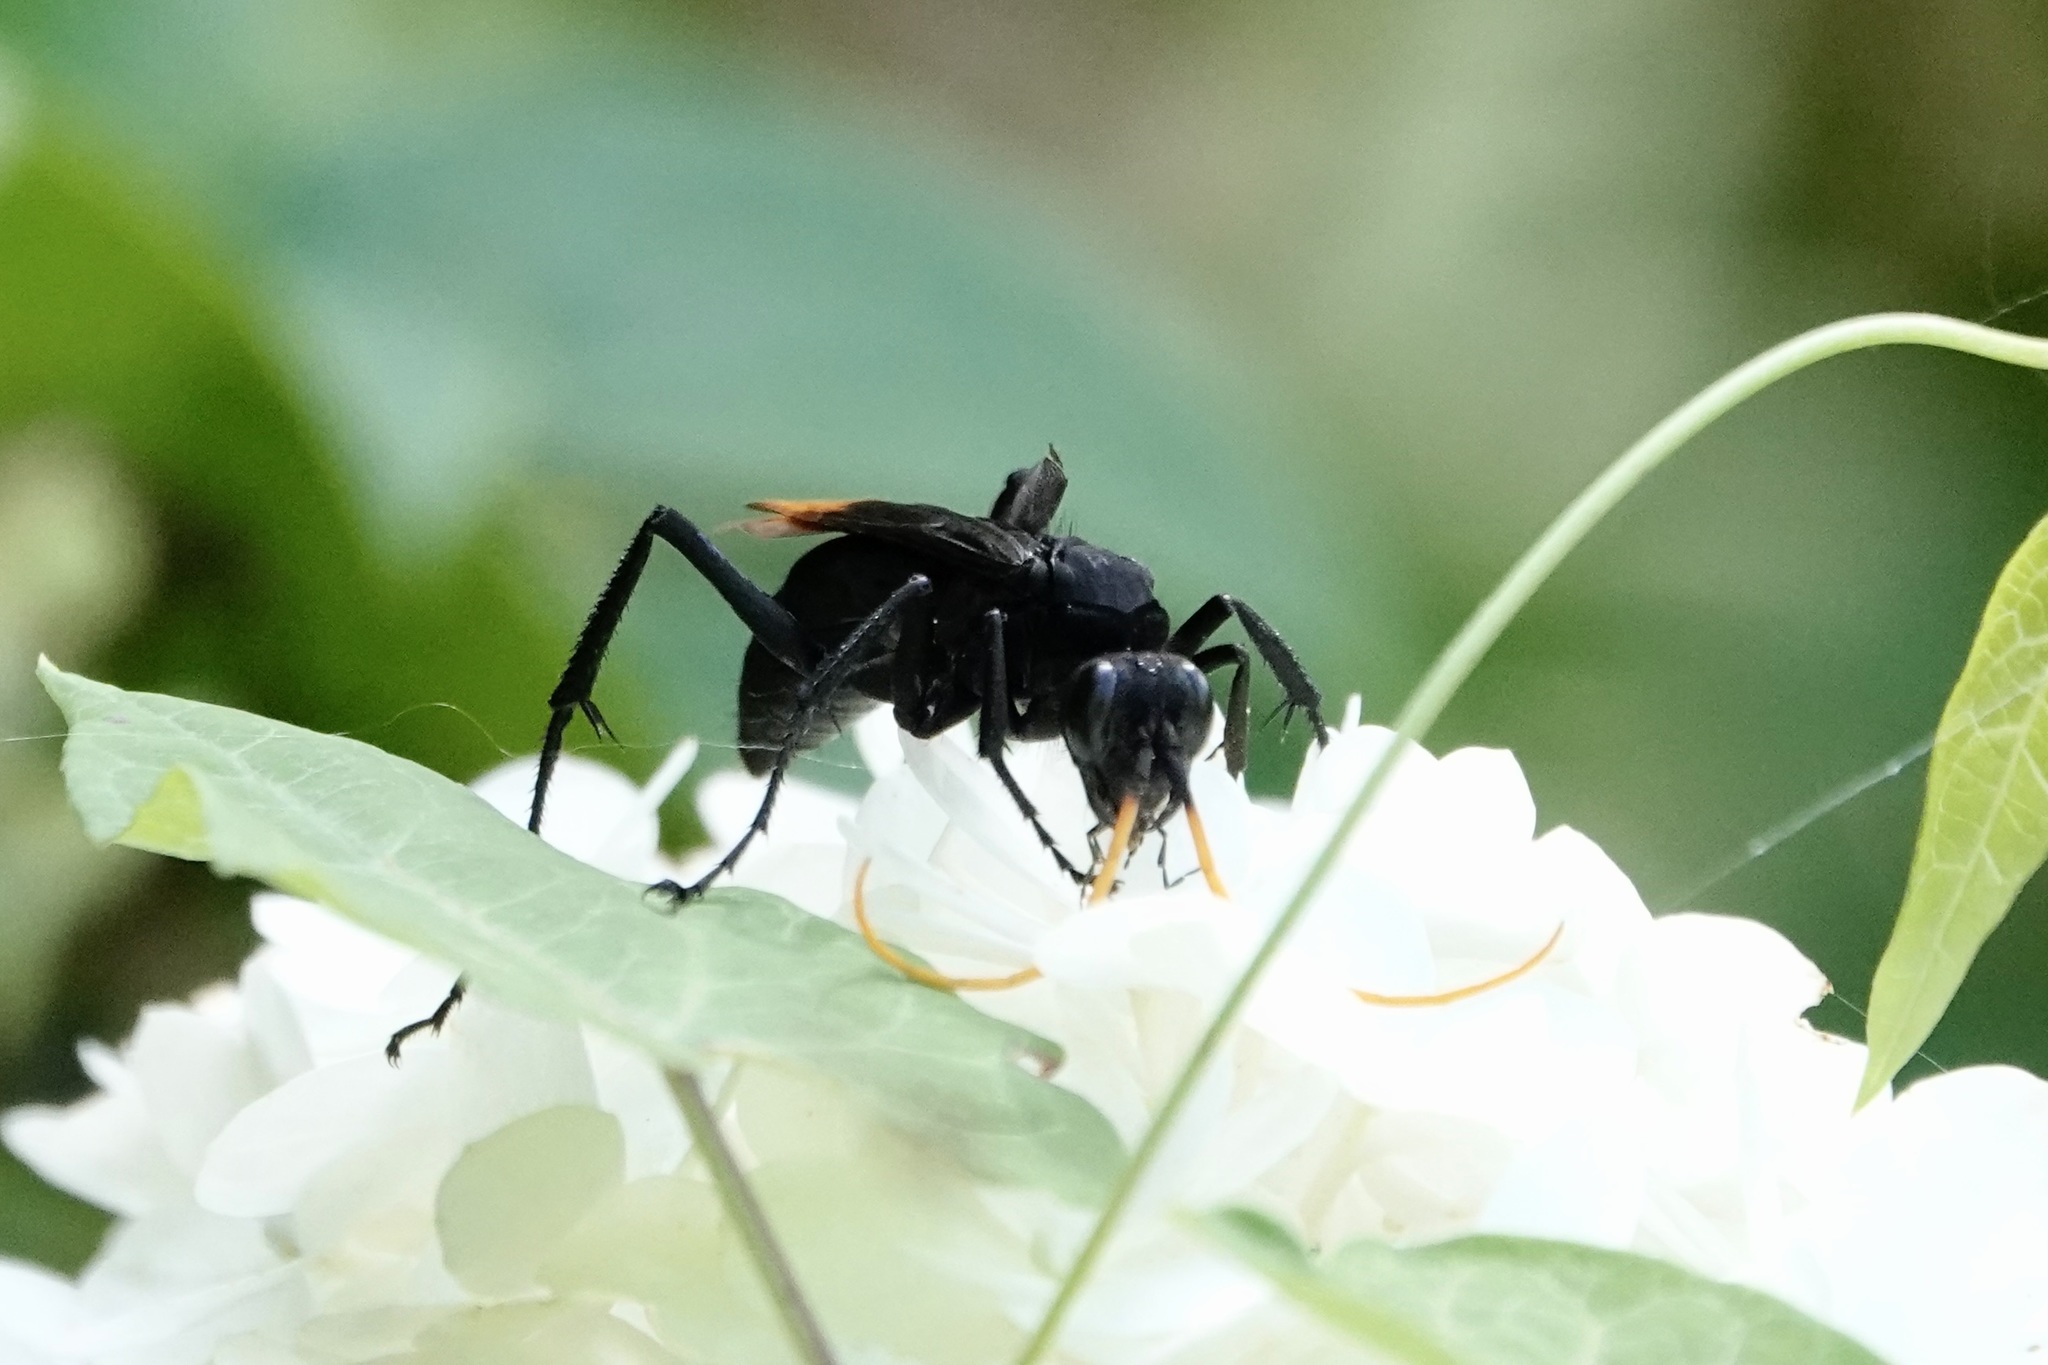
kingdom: Animalia
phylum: Arthropoda
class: Insecta
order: Hymenoptera
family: Pompilidae
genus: Entypus
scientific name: Entypus unifasciatus
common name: Eastern tawny-horned spider wasp
